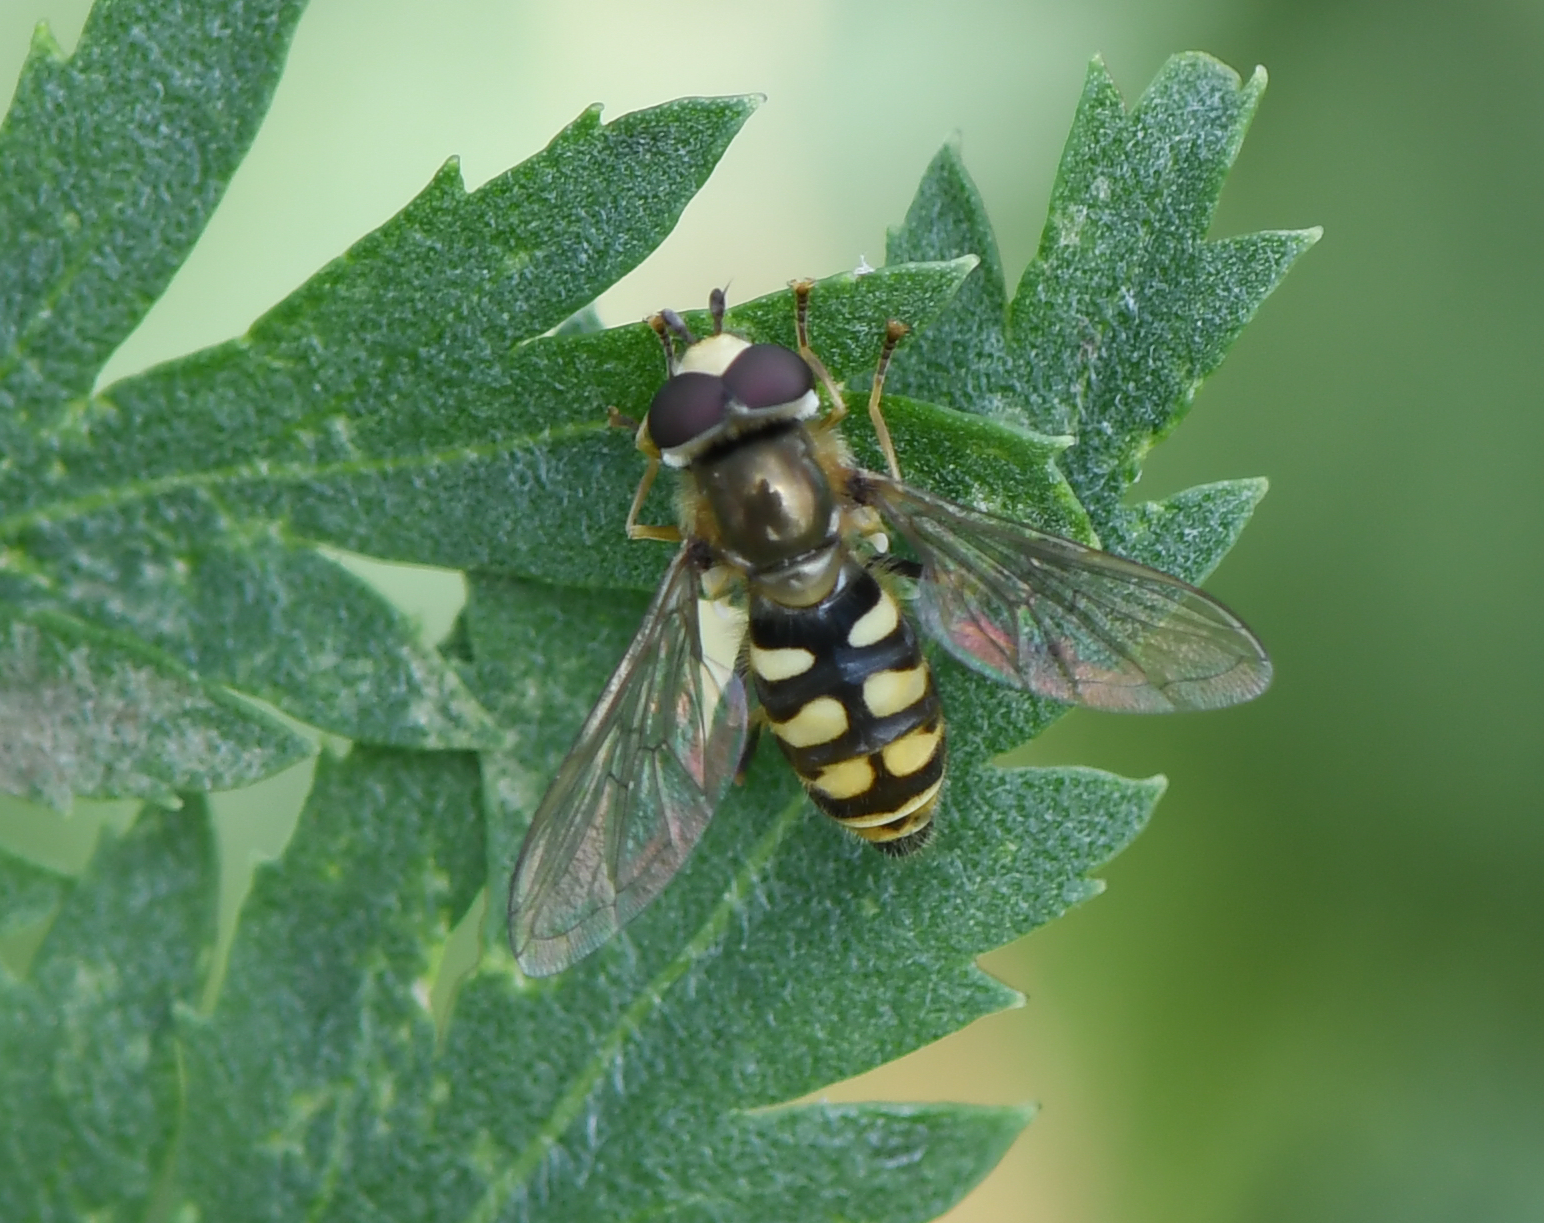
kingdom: Animalia
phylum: Arthropoda
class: Insecta
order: Diptera
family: Syrphidae
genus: Eupeodes
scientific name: Eupeodes corollae
